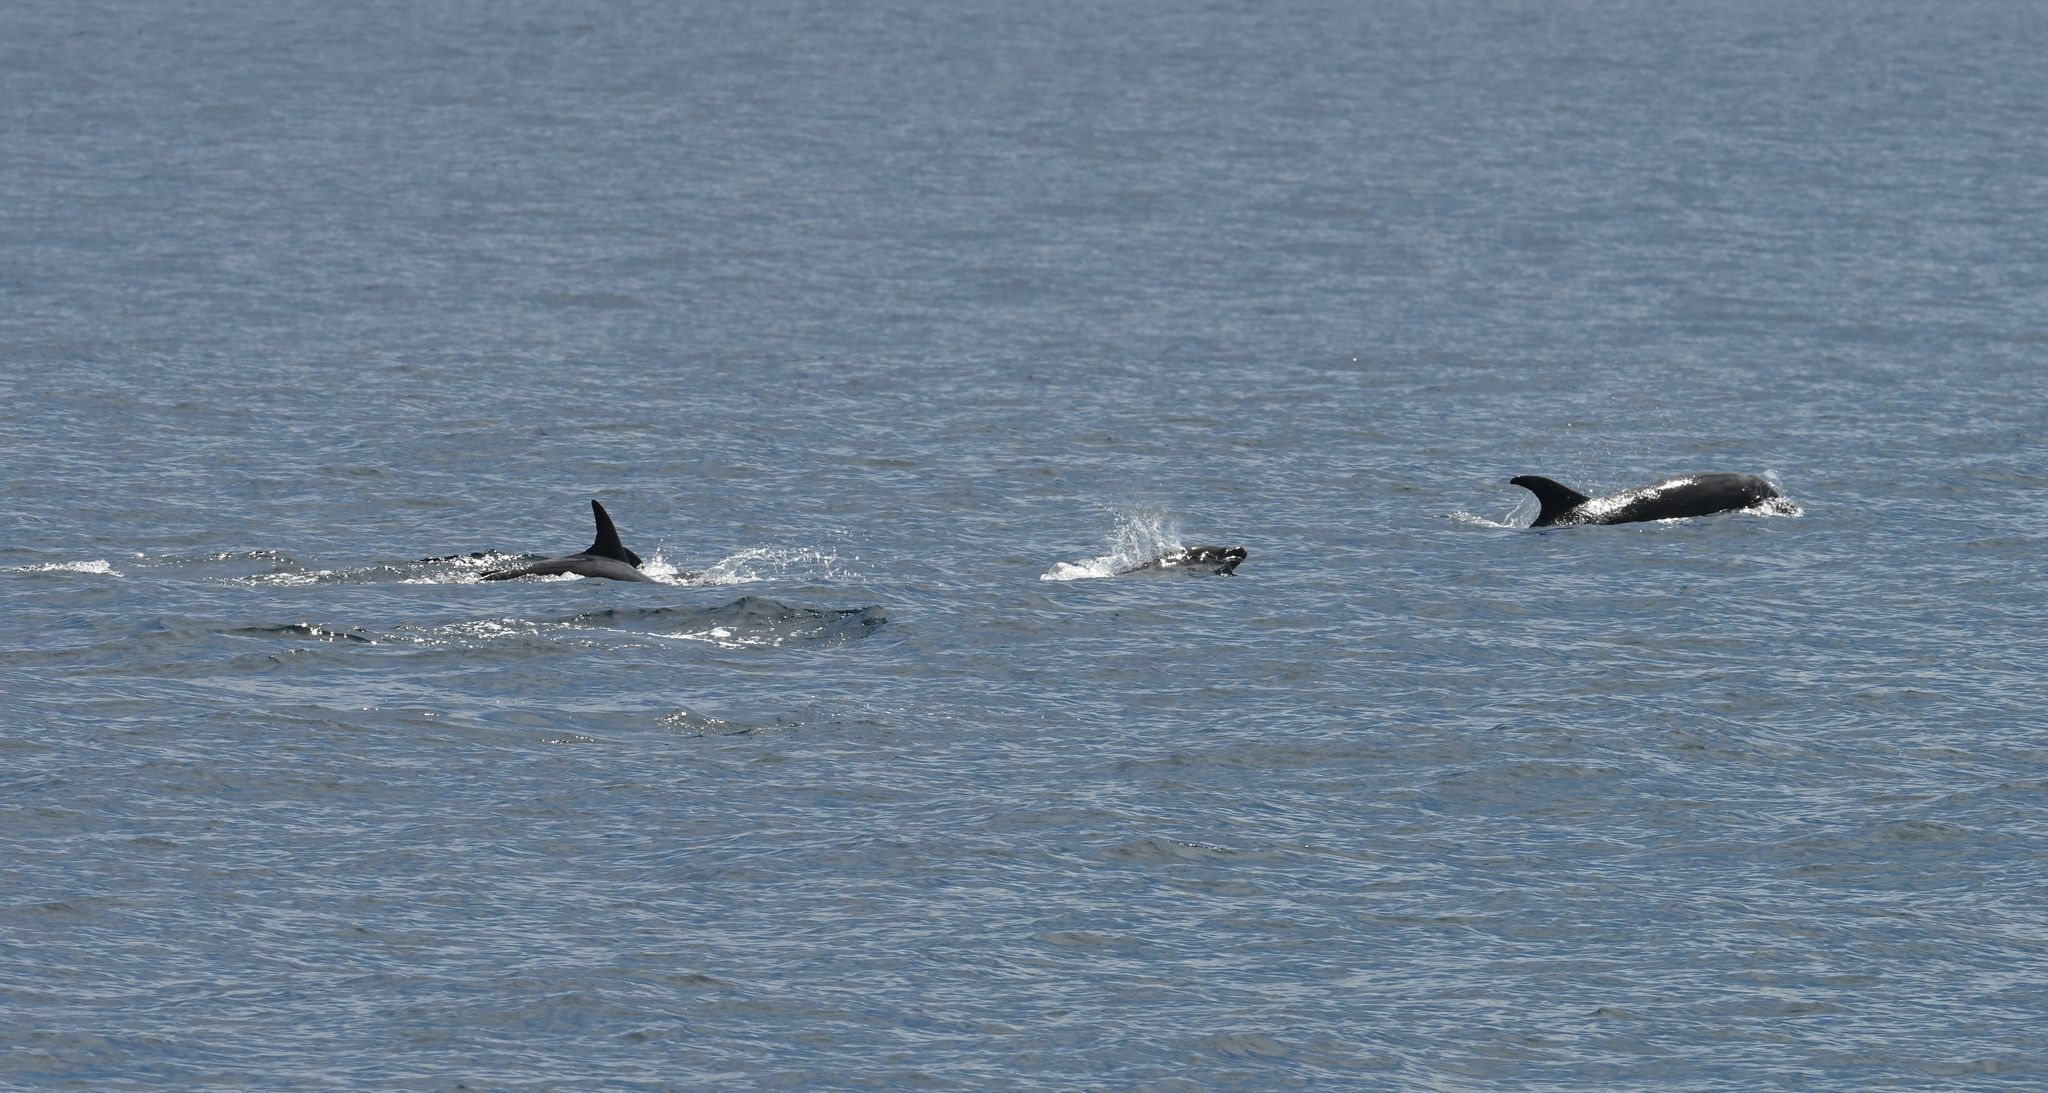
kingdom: Animalia
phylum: Chordata
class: Mammalia
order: Cetacea
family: Delphinidae
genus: Tursiops
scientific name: Tursiops truncatus
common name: Bottlenose dolphin
